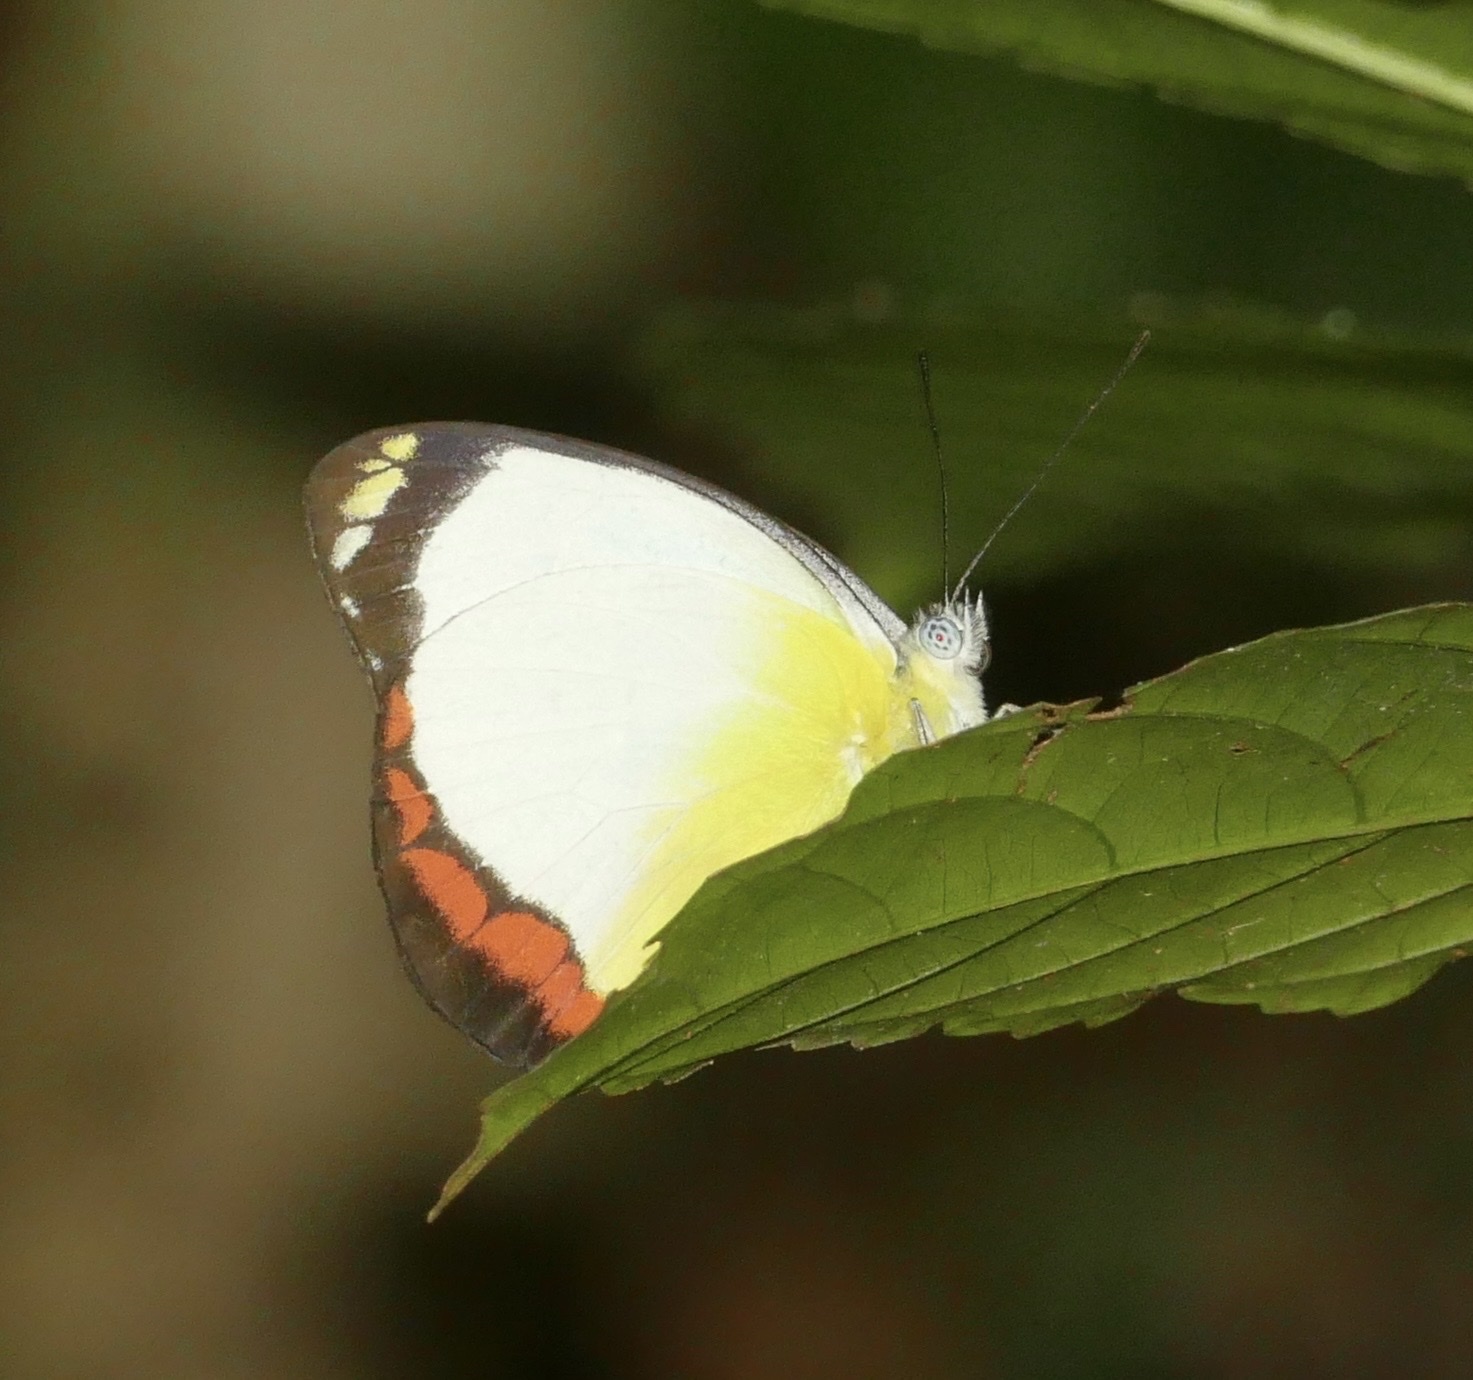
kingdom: Animalia
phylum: Arthropoda
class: Insecta
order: Lepidoptera
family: Pieridae
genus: Delias
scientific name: Delias ladas
